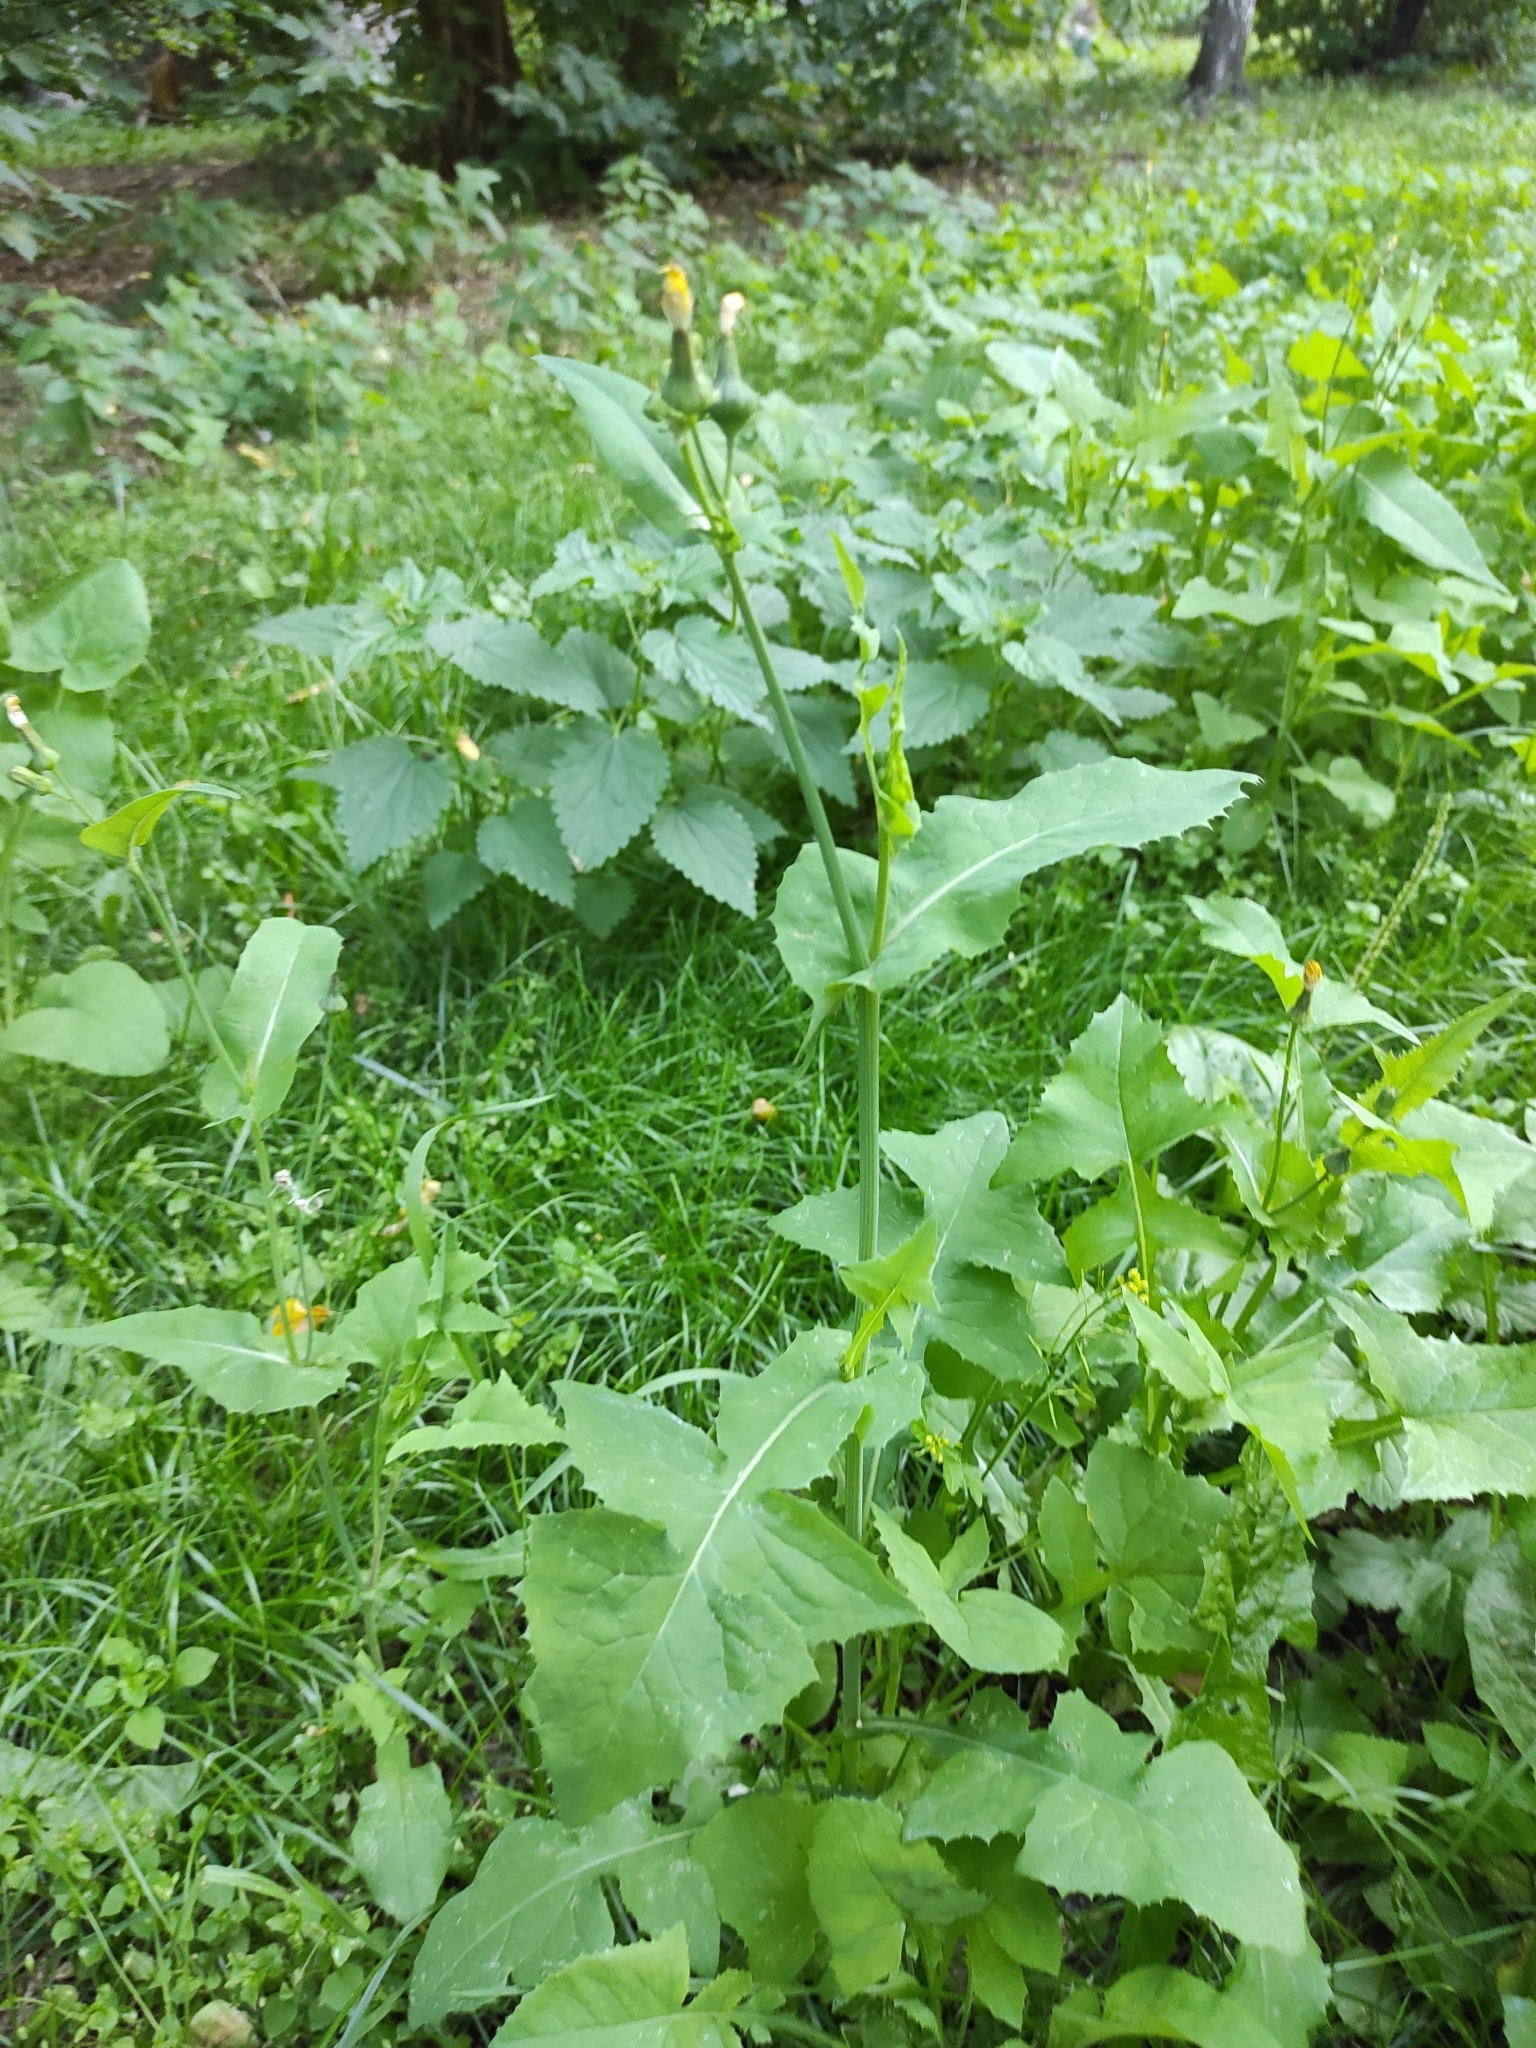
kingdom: Plantae
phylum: Tracheophyta
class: Magnoliopsida
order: Asterales
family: Asteraceae
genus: Sonchus
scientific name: Sonchus oleraceus
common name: Common sowthistle
